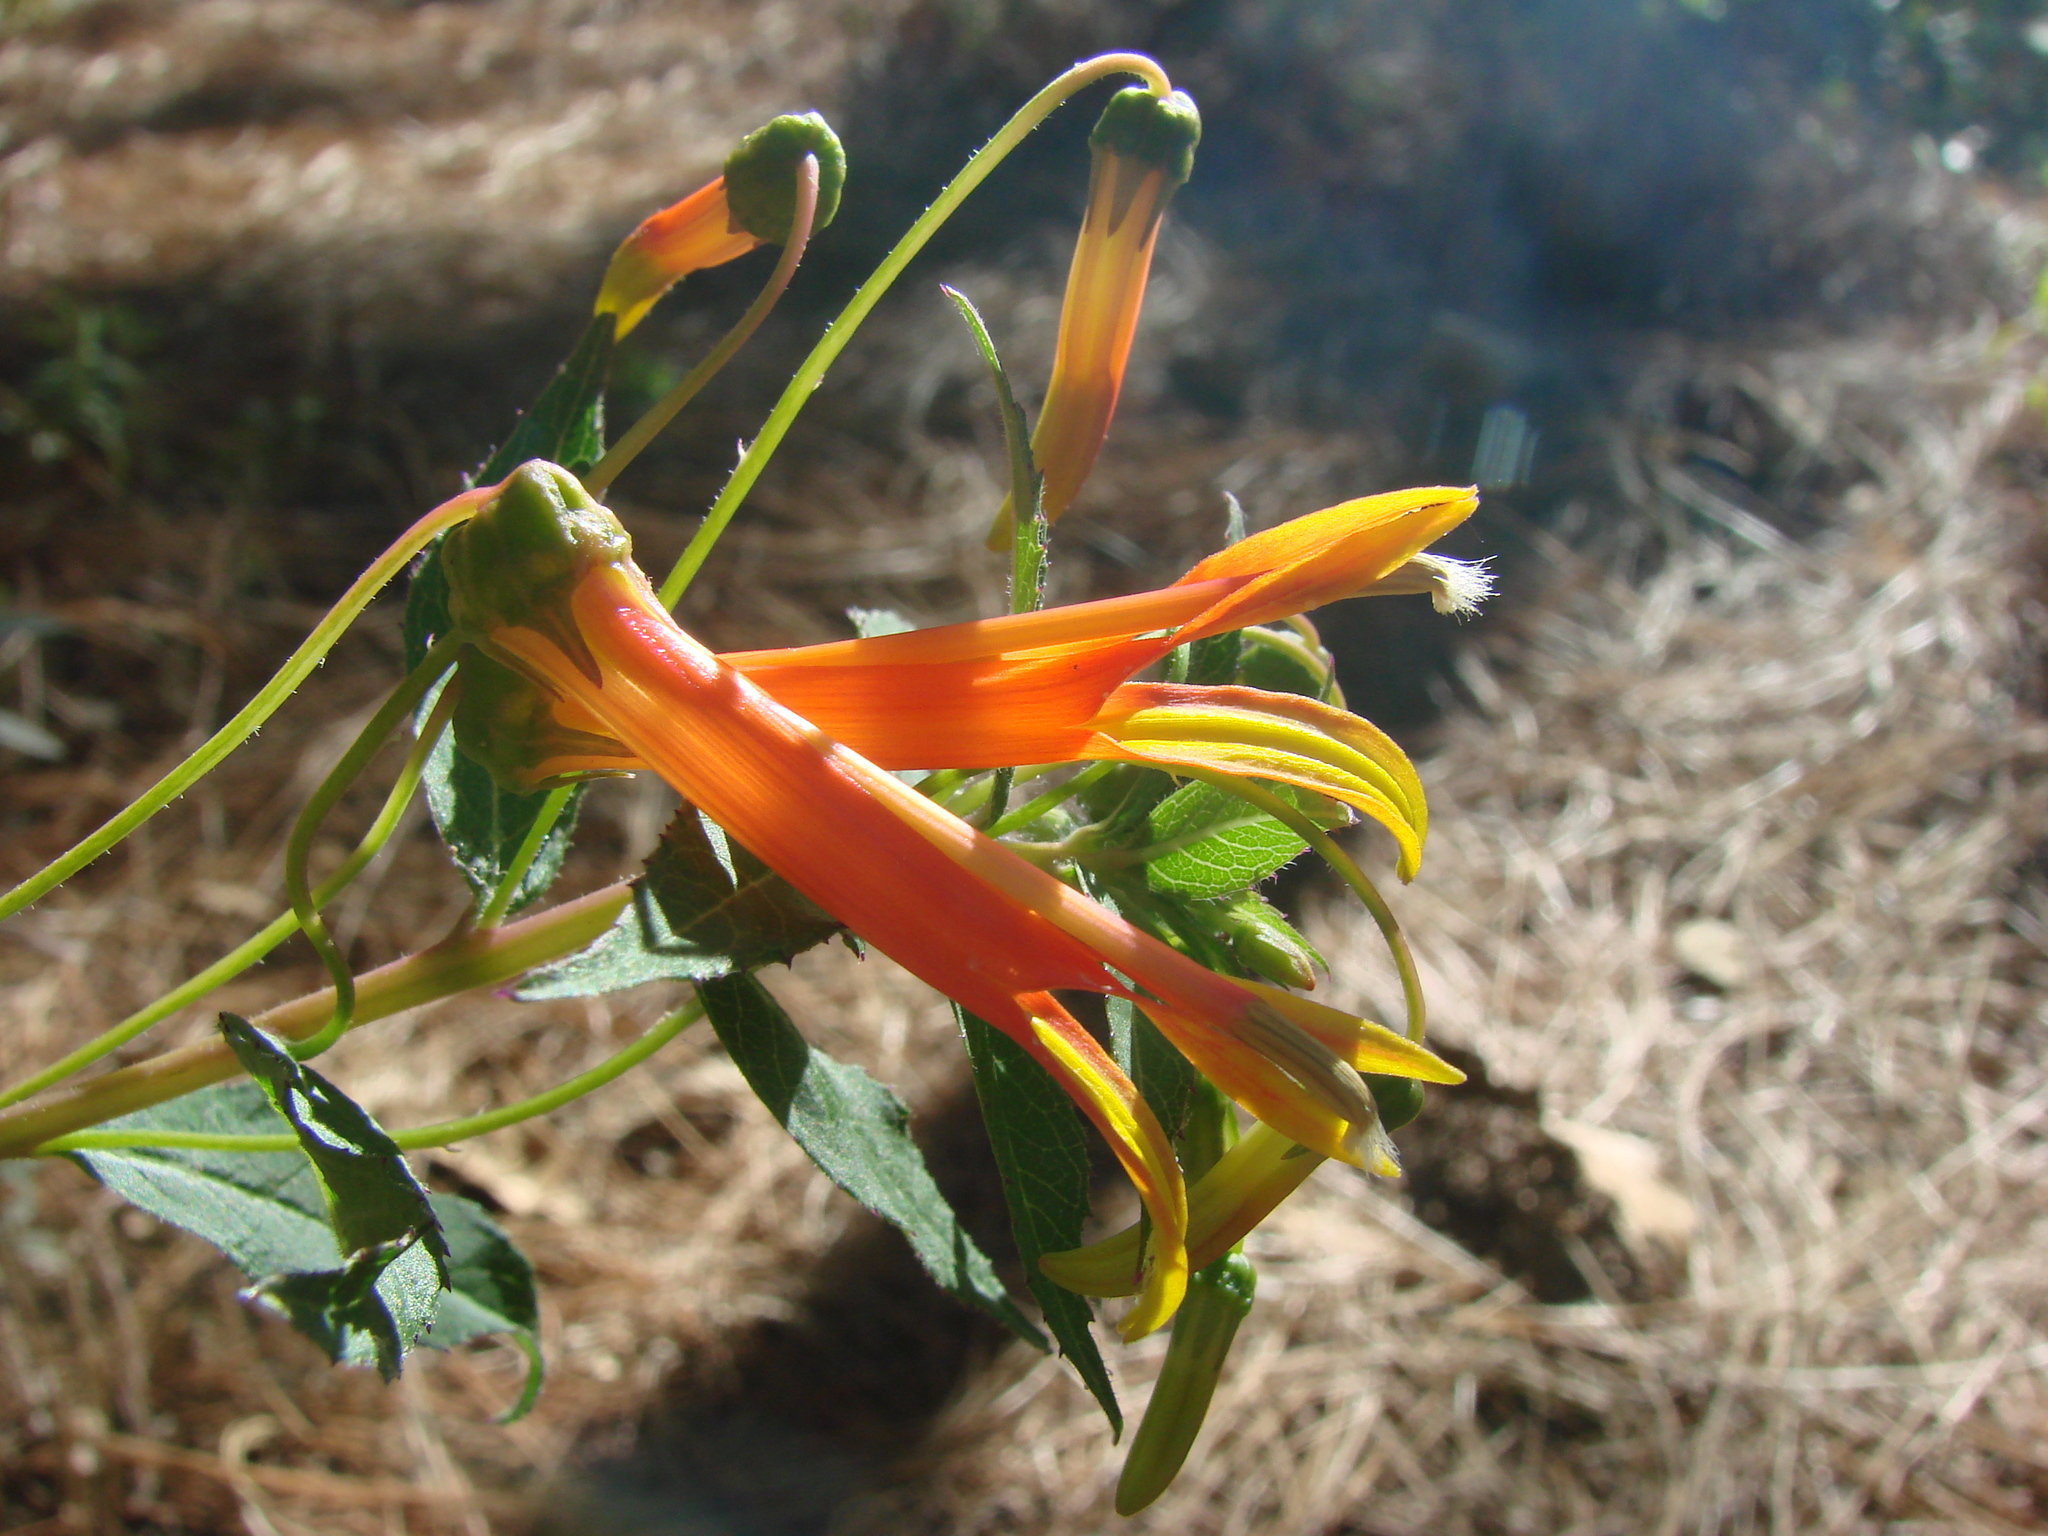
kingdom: Plantae
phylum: Tracheophyta
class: Magnoliopsida
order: Asterales
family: Campanulaceae
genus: Lobelia
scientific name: Lobelia laxiflora
